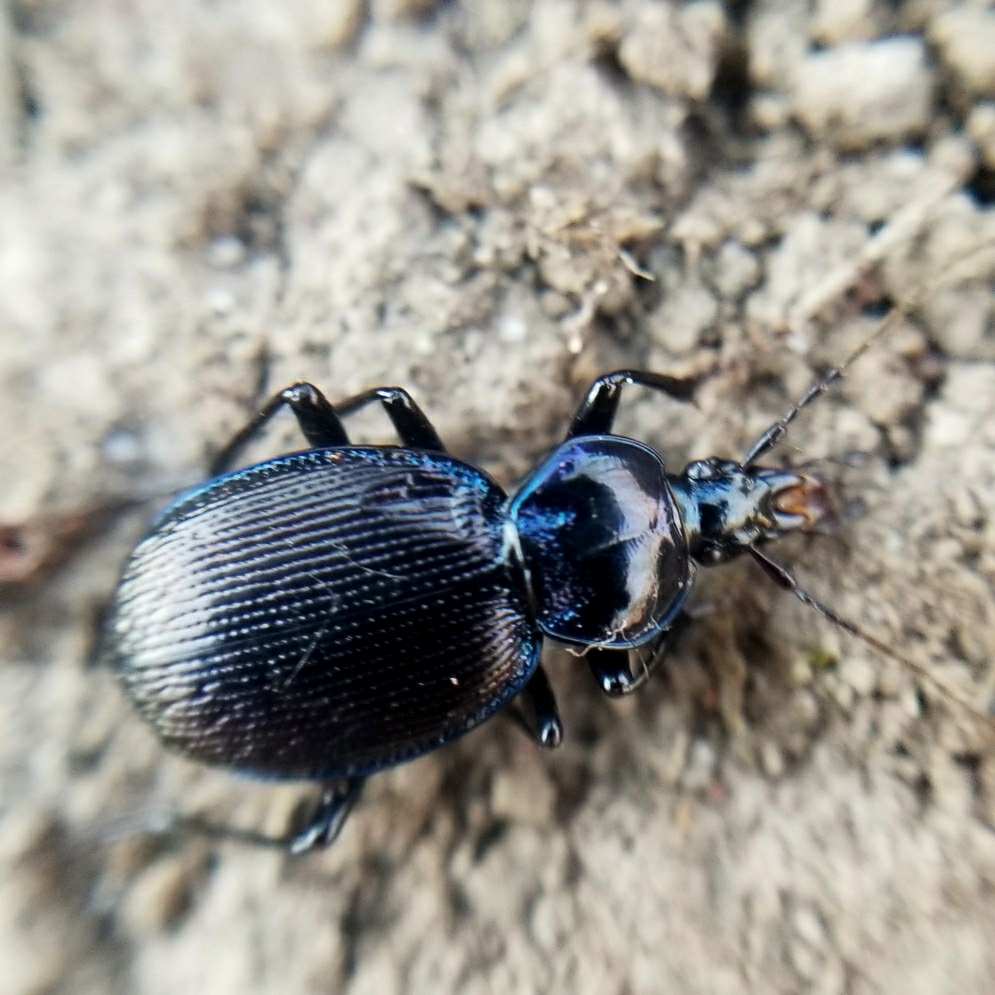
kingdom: Animalia
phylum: Arthropoda
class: Insecta
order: Coleoptera
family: Carabidae
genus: Sphaeroderus
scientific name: Sphaeroderus stenostomus
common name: Small snail-eating ground beetle
